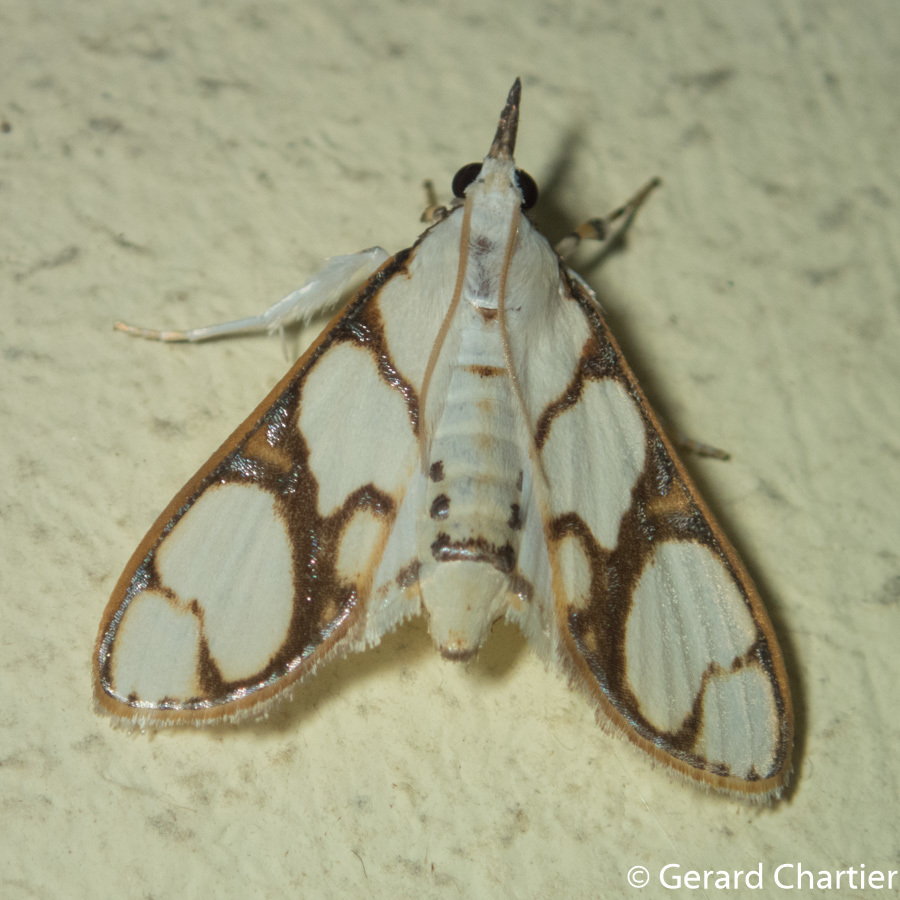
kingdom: Animalia
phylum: Arthropoda
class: Insecta
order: Lepidoptera
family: Crambidae
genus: Cirrhochrista
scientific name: Cirrhochrista
